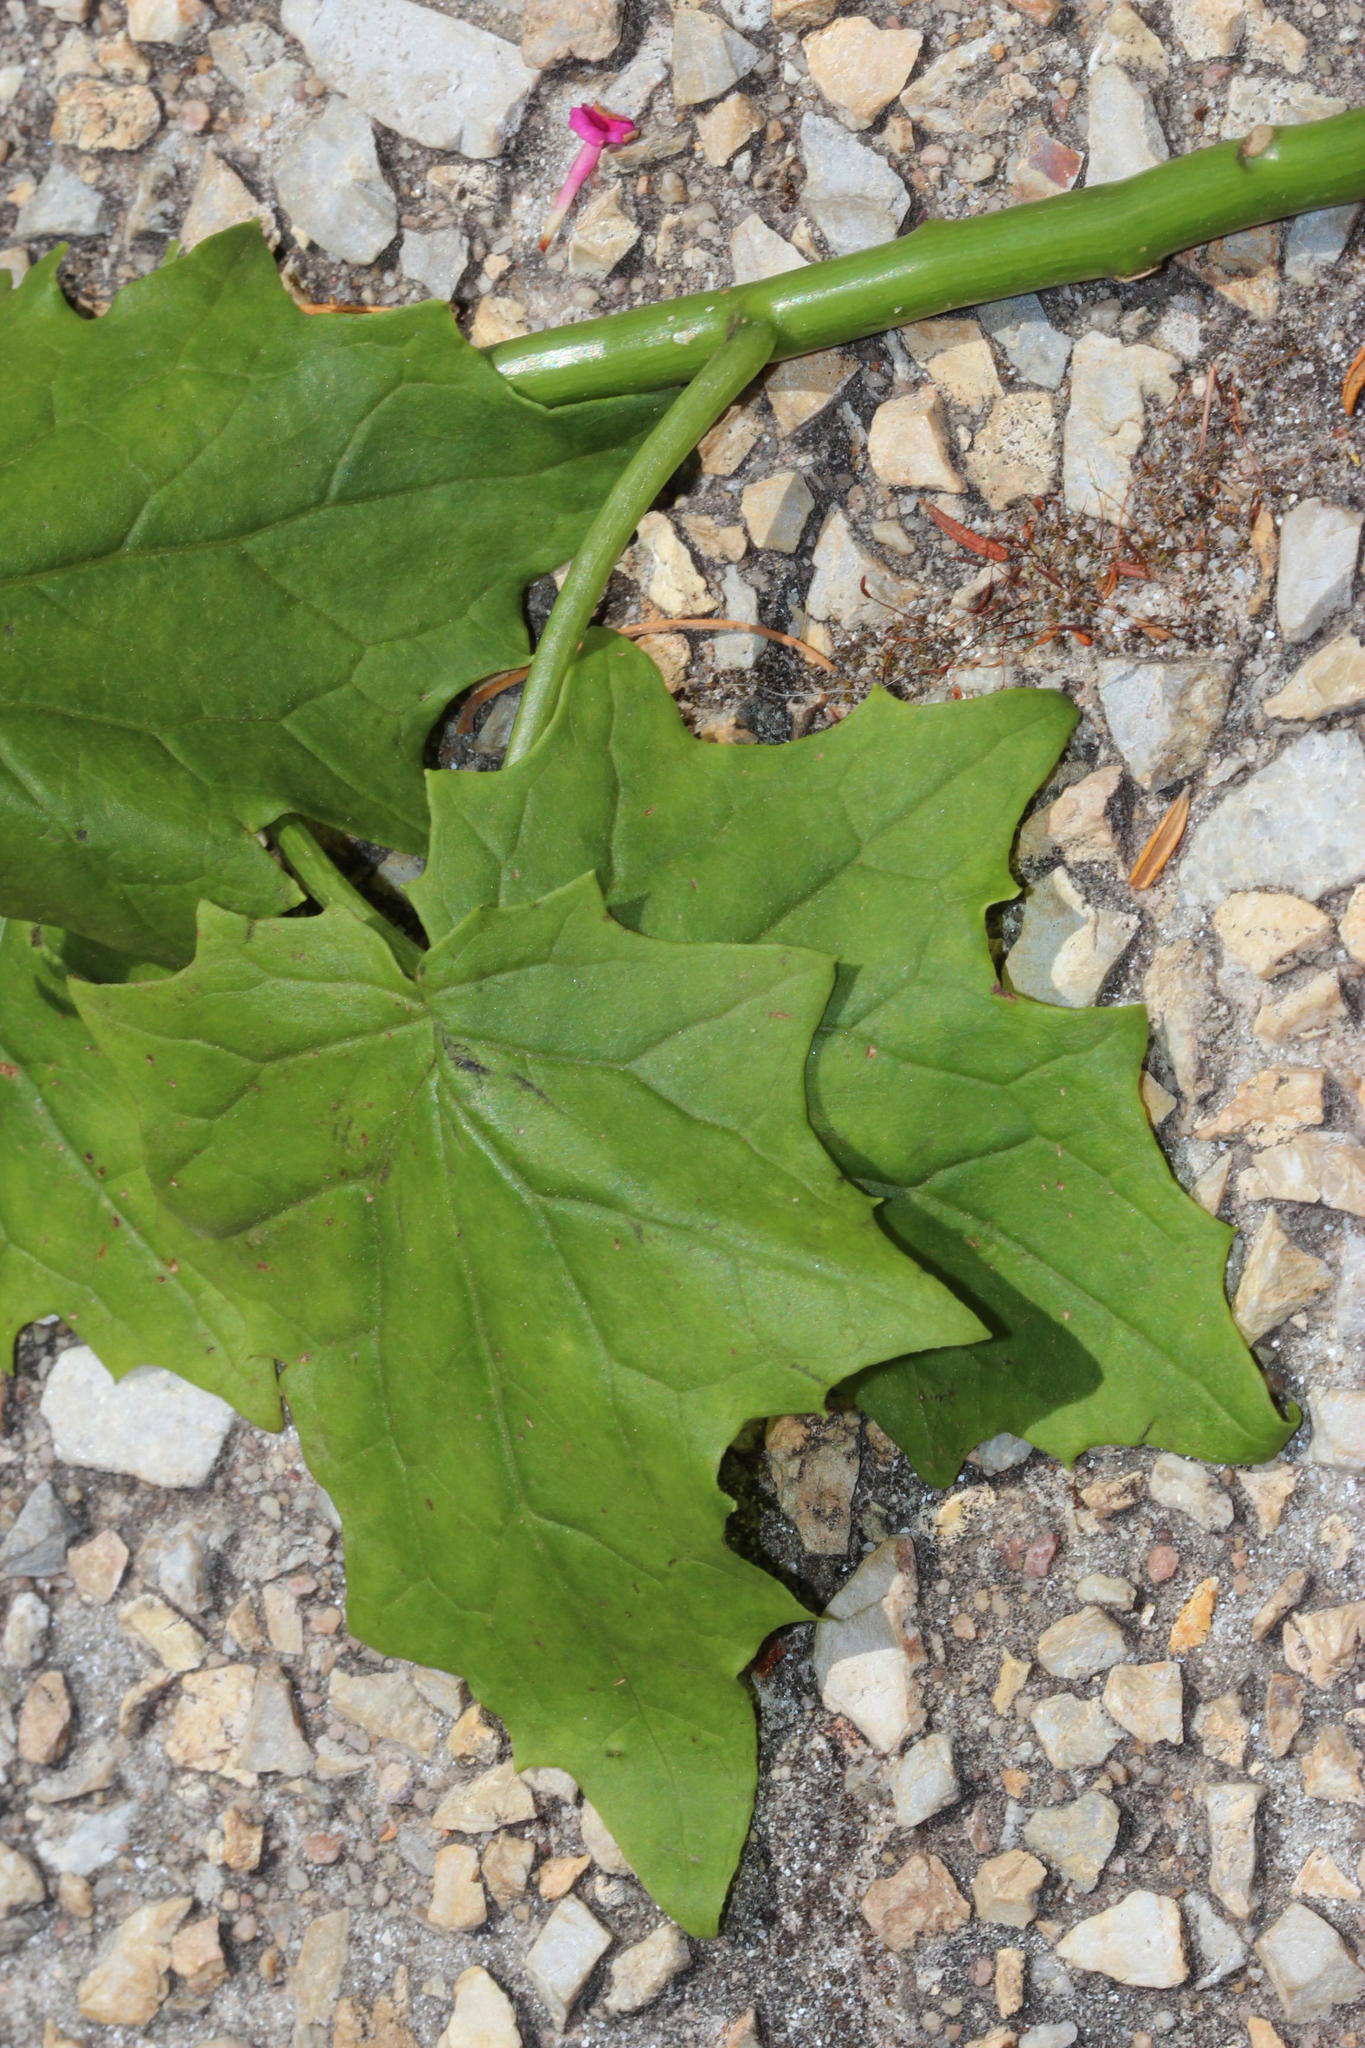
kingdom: Plantae
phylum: Tracheophyta
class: Magnoliopsida
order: Asterales
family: Asteraceae
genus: Senecio
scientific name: Senecio tamoides
